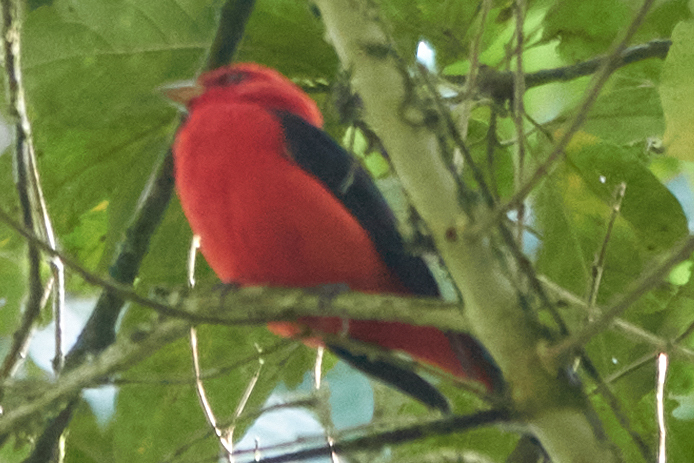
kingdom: Animalia
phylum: Chordata
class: Aves
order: Passeriformes
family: Cardinalidae
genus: Piranga
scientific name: Piranga olivacea
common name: Scarlet tanager
